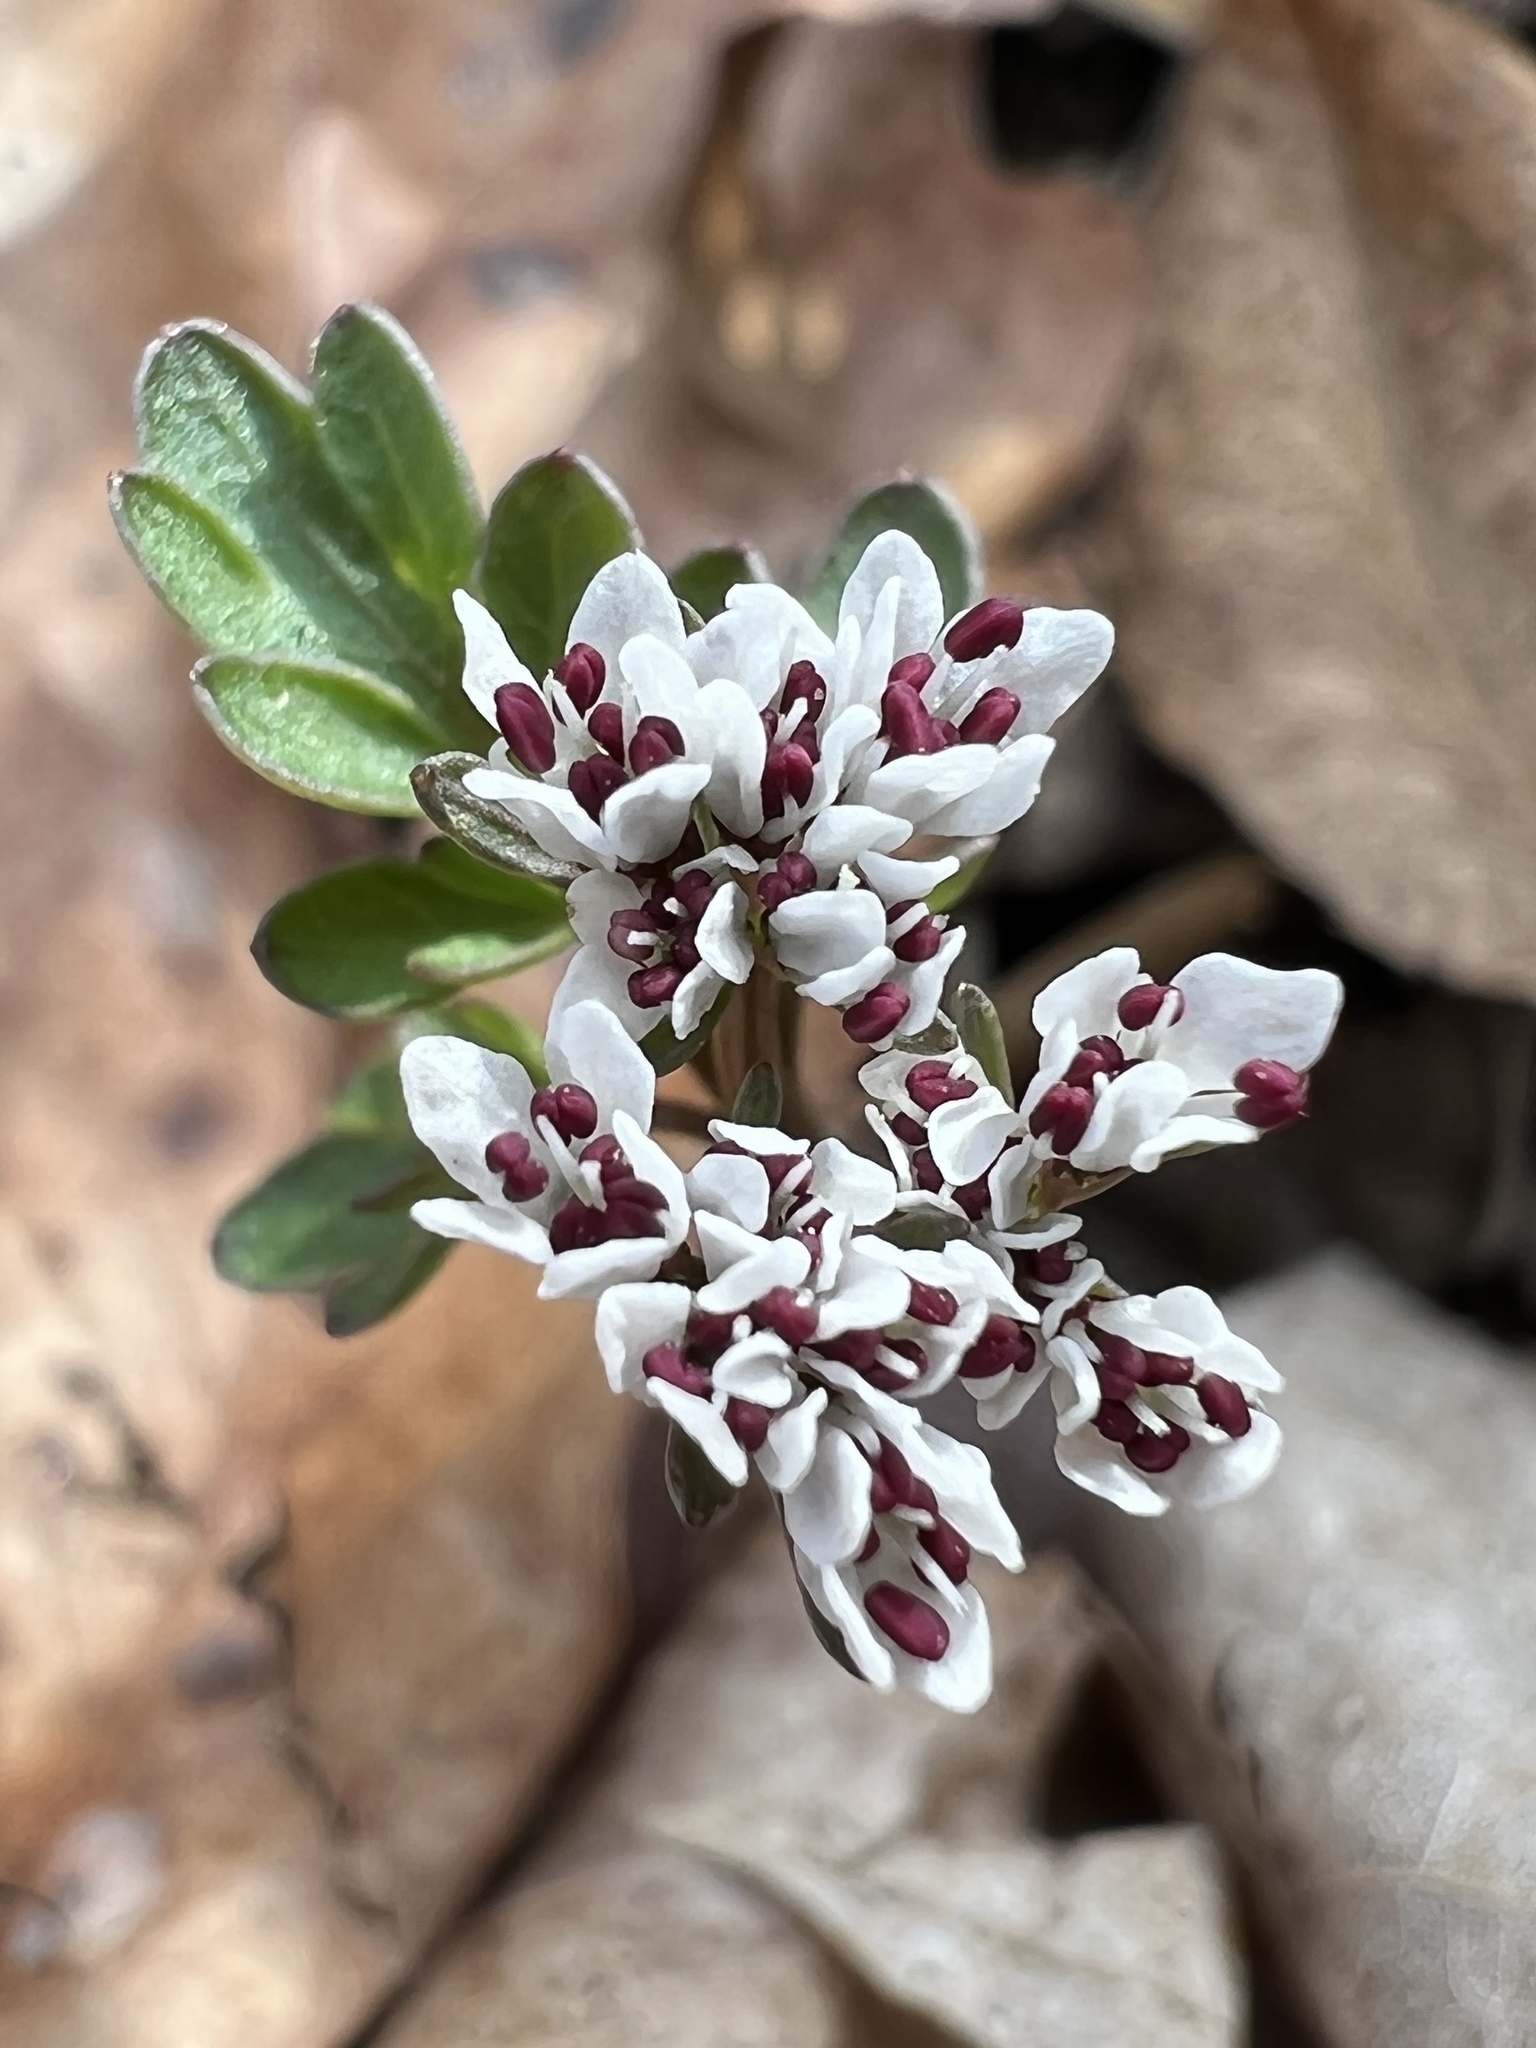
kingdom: Plantae
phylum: Tracheophyta
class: Magnoliopsida
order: Apiales
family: Apiaceae
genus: Erigenia
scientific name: Erigenia bulbosa
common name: Pepper-and-salt
